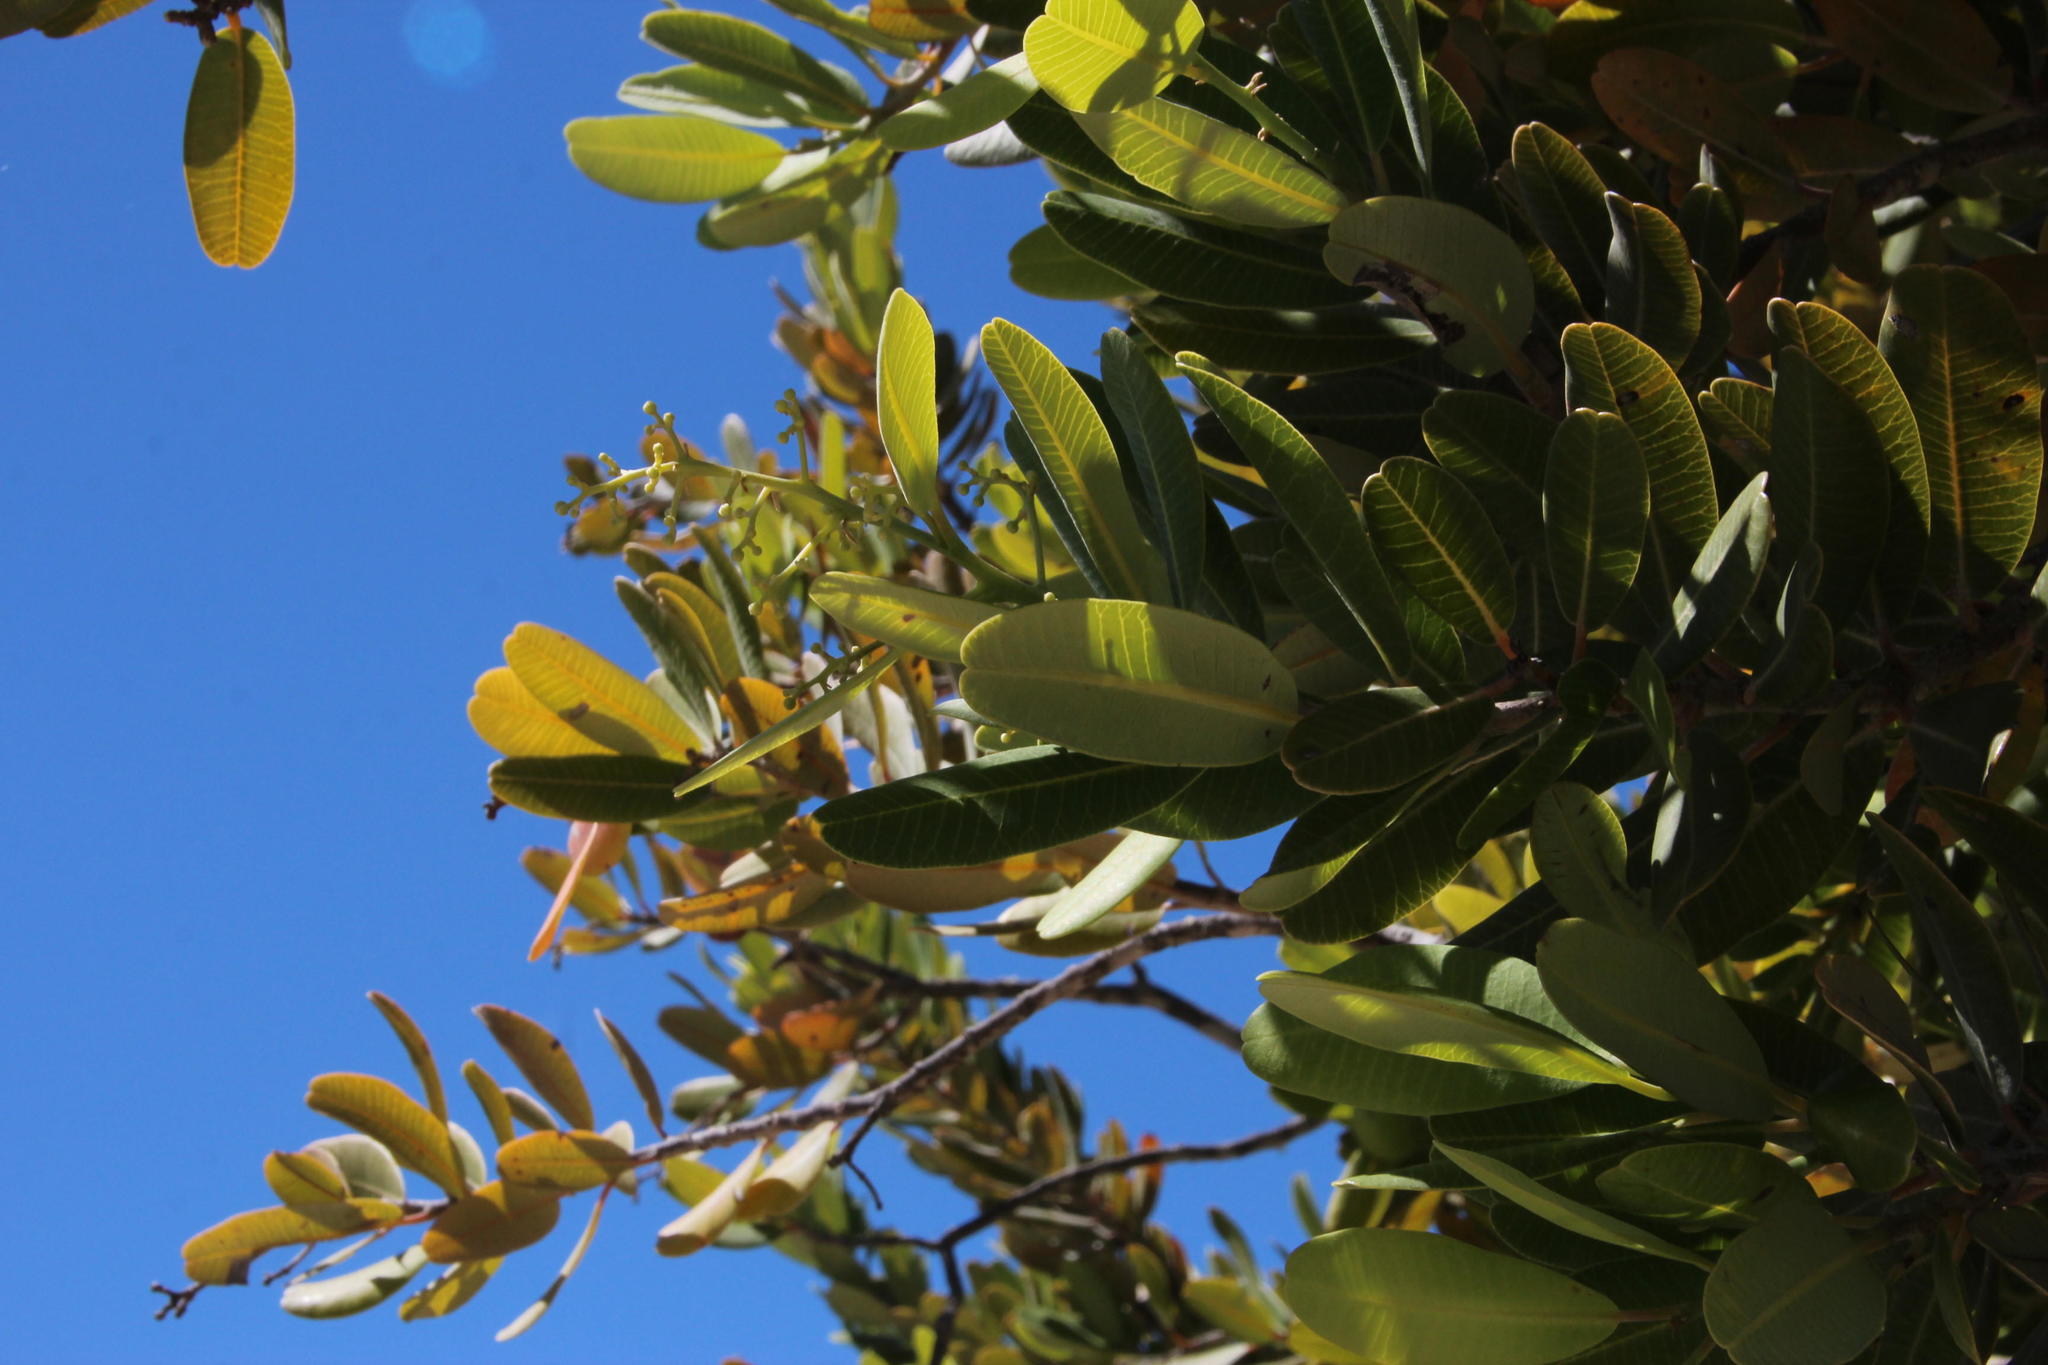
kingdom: Plantae
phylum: Tracheophyta
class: Magnoliopsida
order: Sapindales
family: Anacardiaceae
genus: Heeria
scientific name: Heeria argentea
